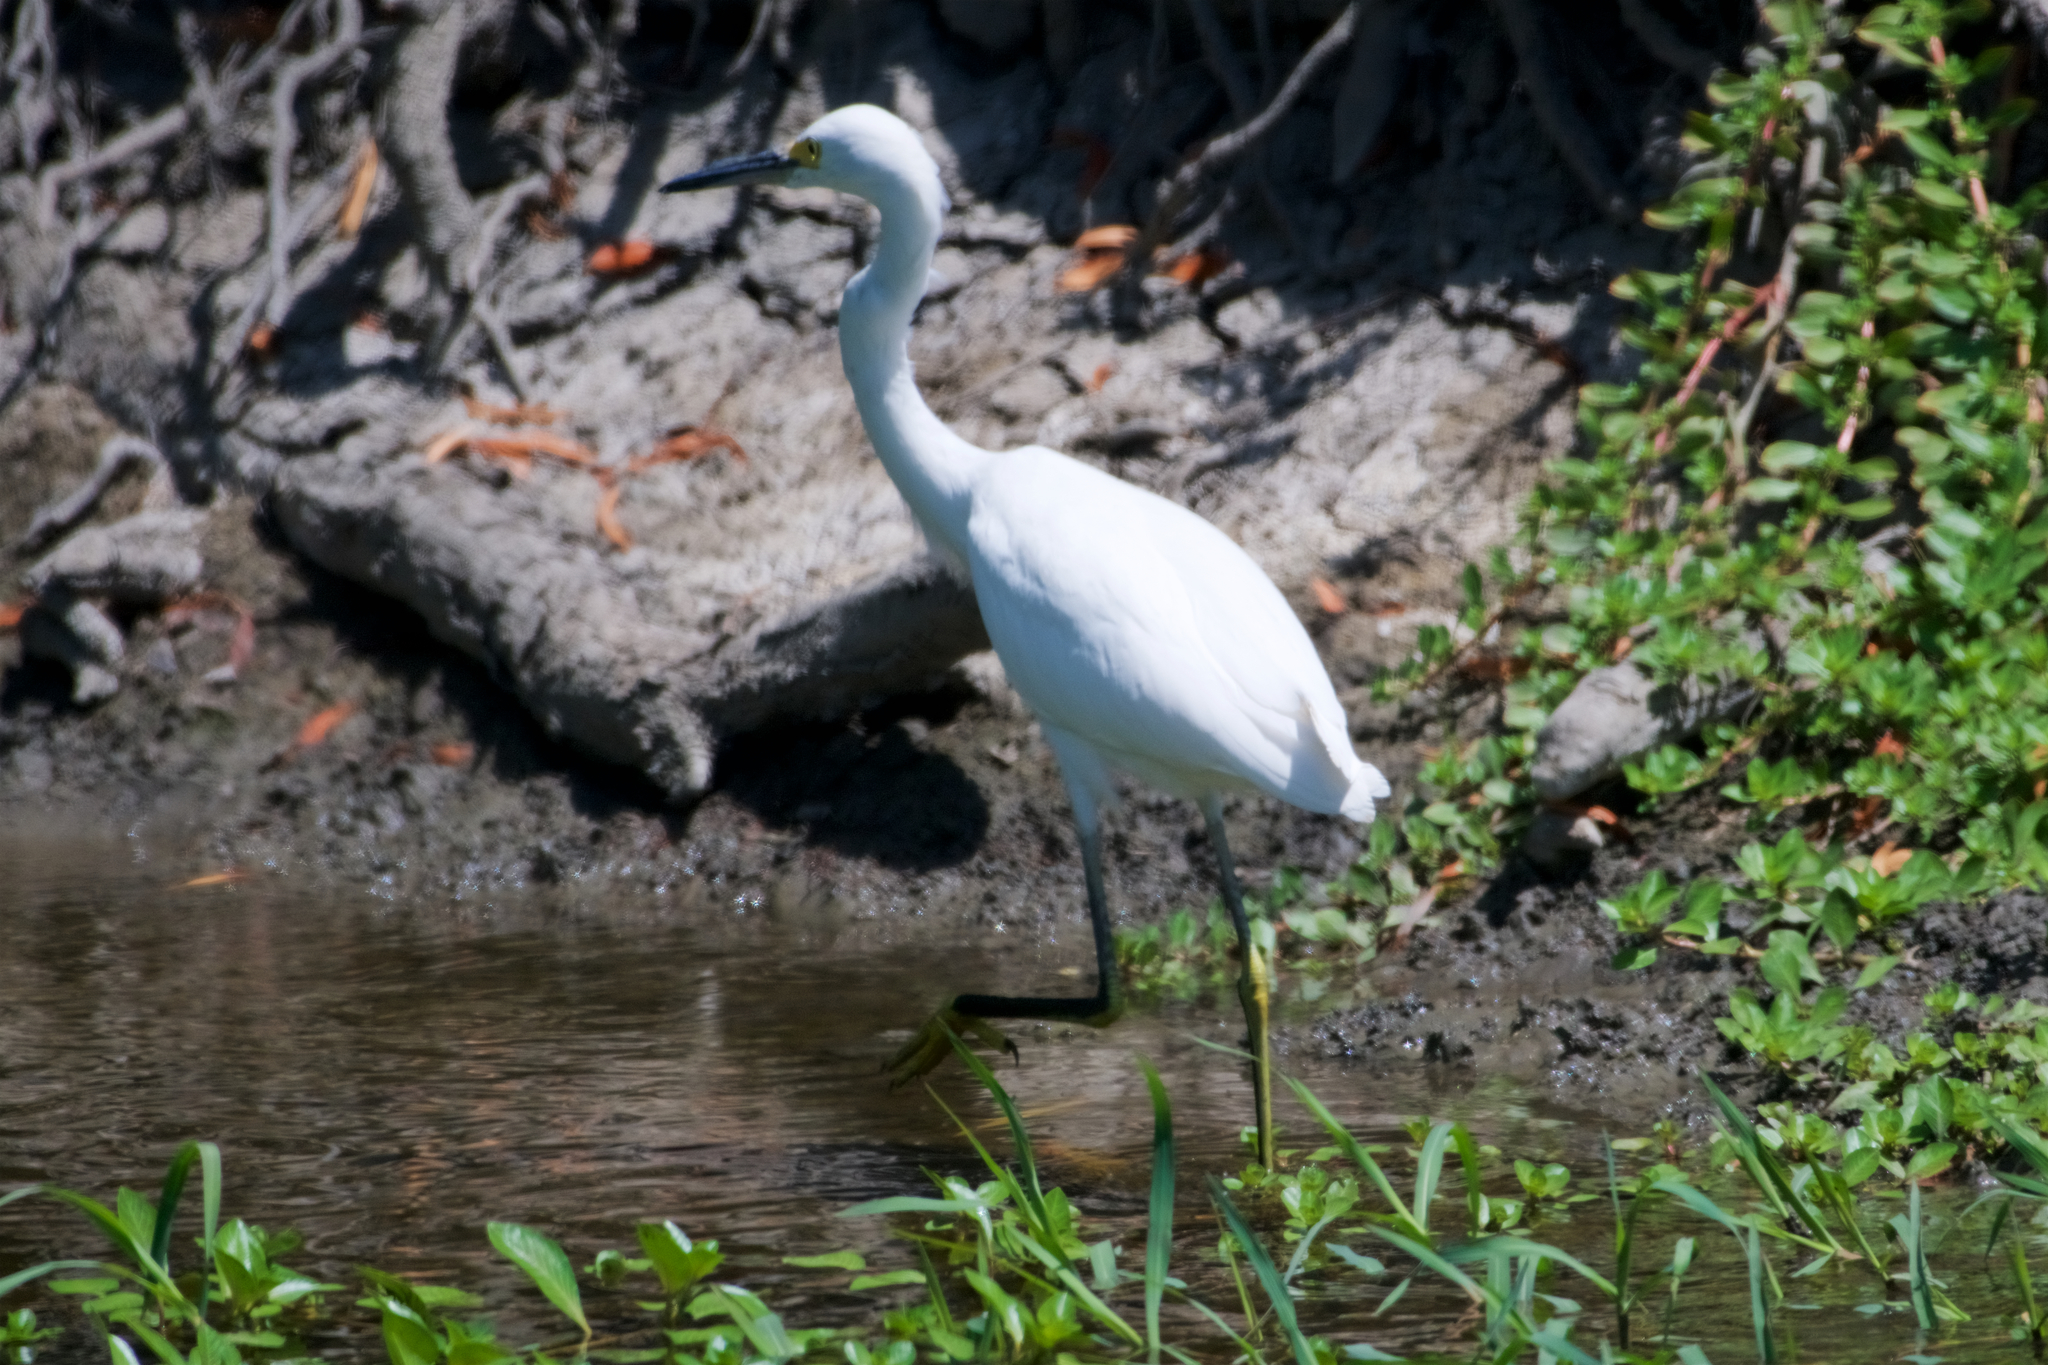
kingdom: Animalia
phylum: Chordata
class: Aves
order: Pelecaniformes
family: Ardeidae
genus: Egretta
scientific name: Egretta thula
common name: Snowy egret
